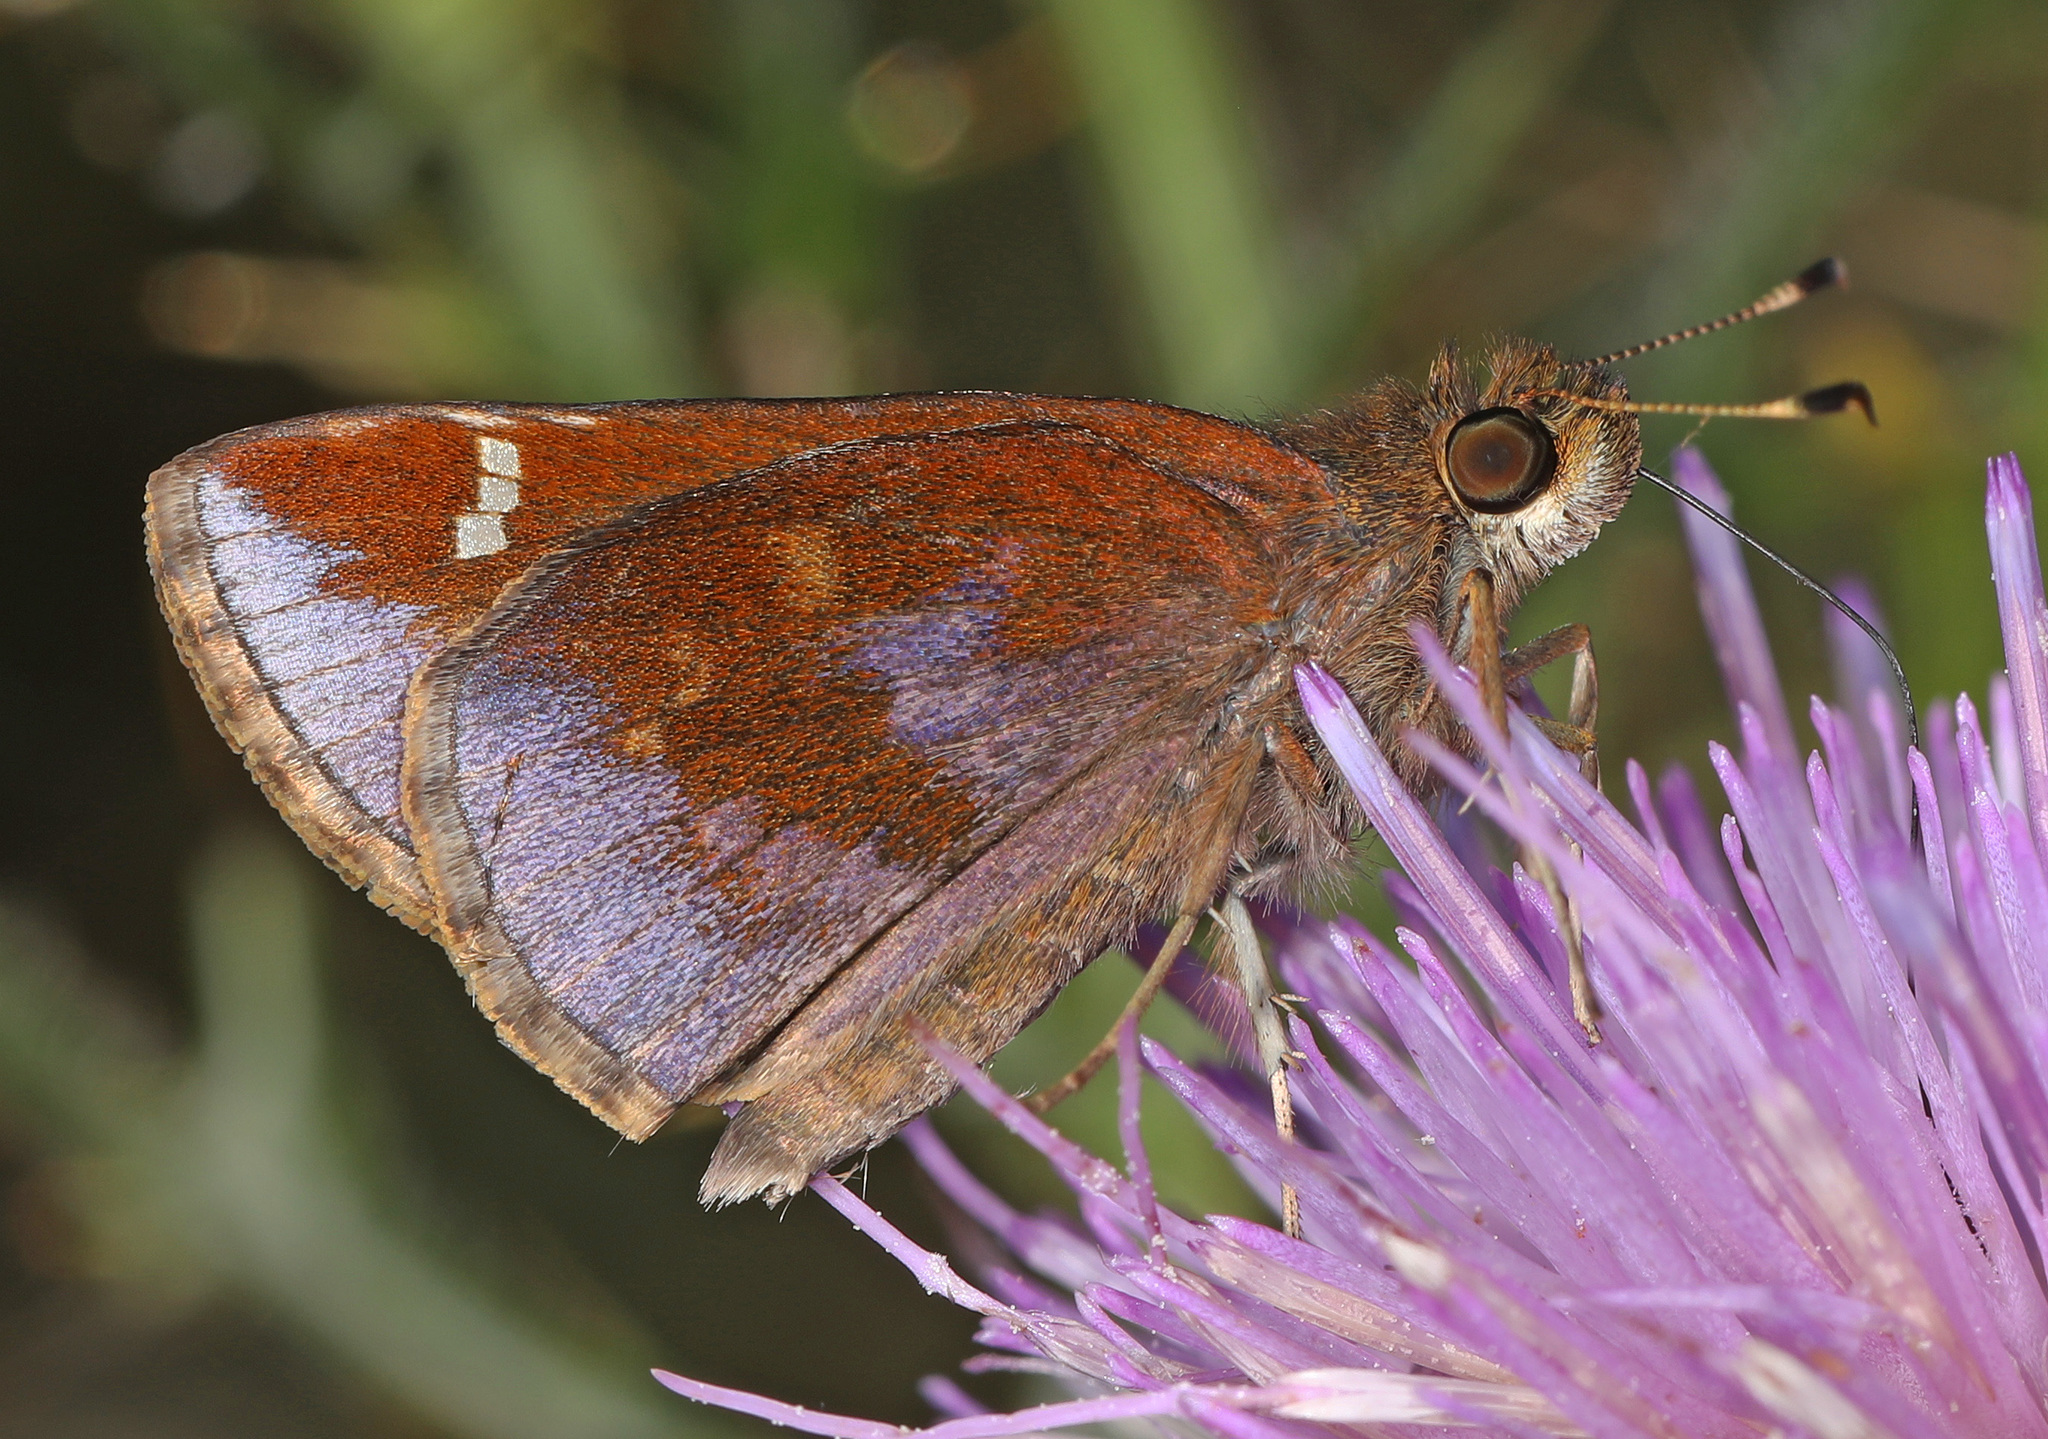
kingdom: Animalia
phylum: Arthropoda
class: Insecta
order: Lepidoptera
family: Hesperiidae
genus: Lerema
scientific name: Lerema accius
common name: Clouded skipper
